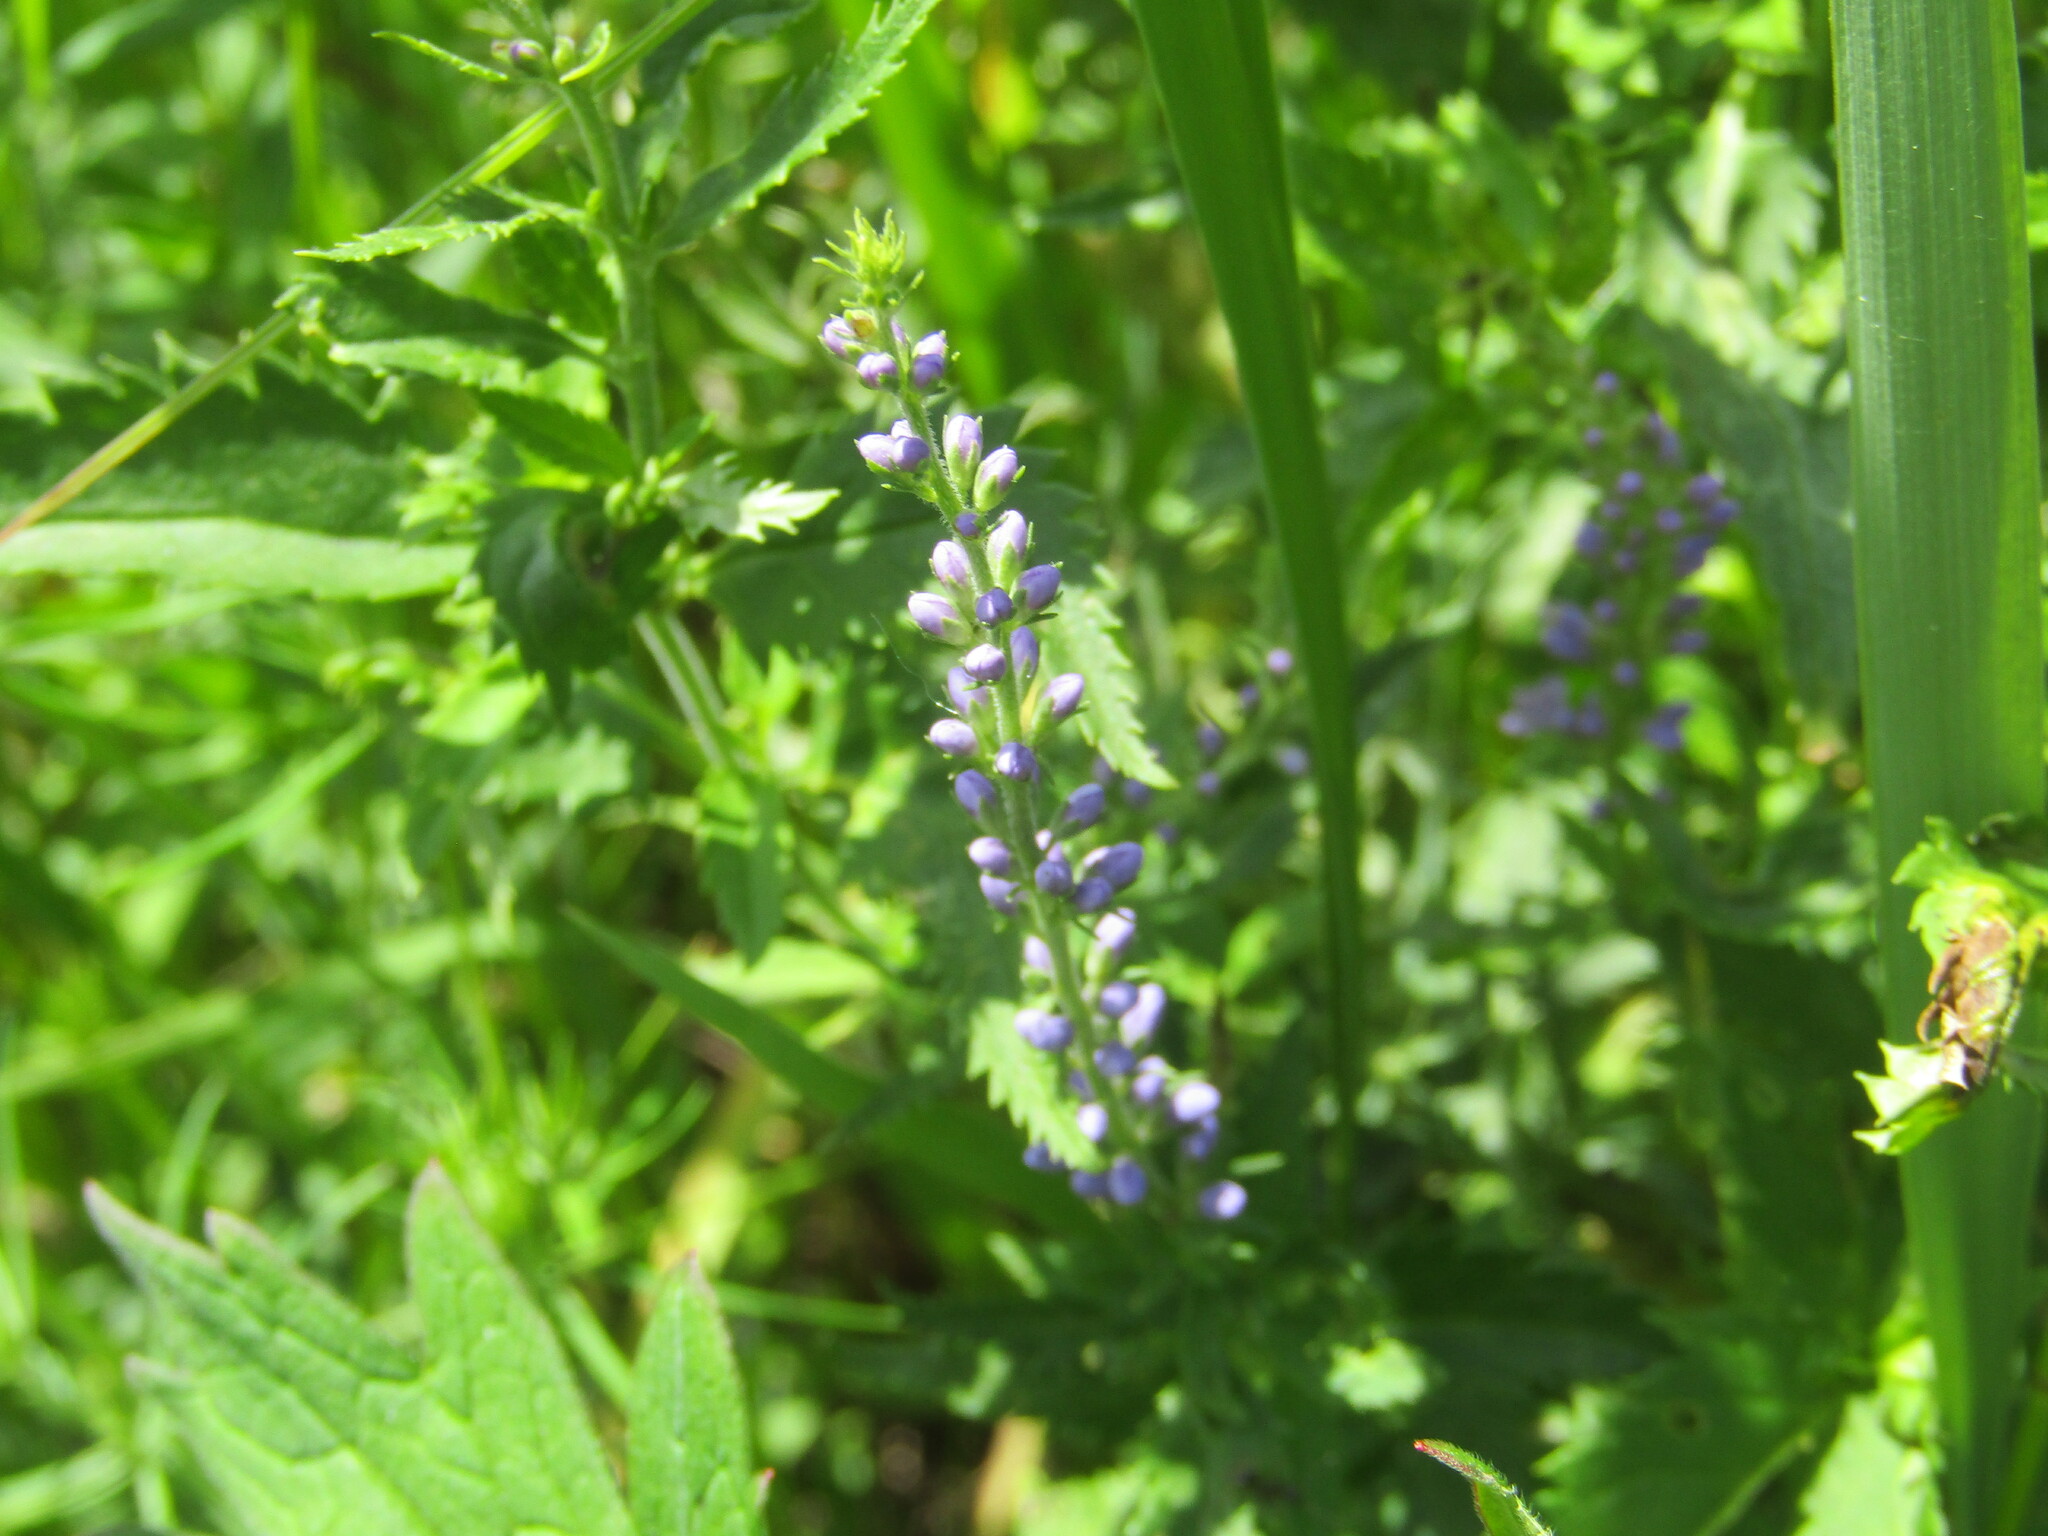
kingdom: Plantae
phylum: Tracheophyta
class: Magnoliopsida
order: Lamiales
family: Plantaginaceae
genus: Veronica
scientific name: Veronica longifolia
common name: Garden speedwell
